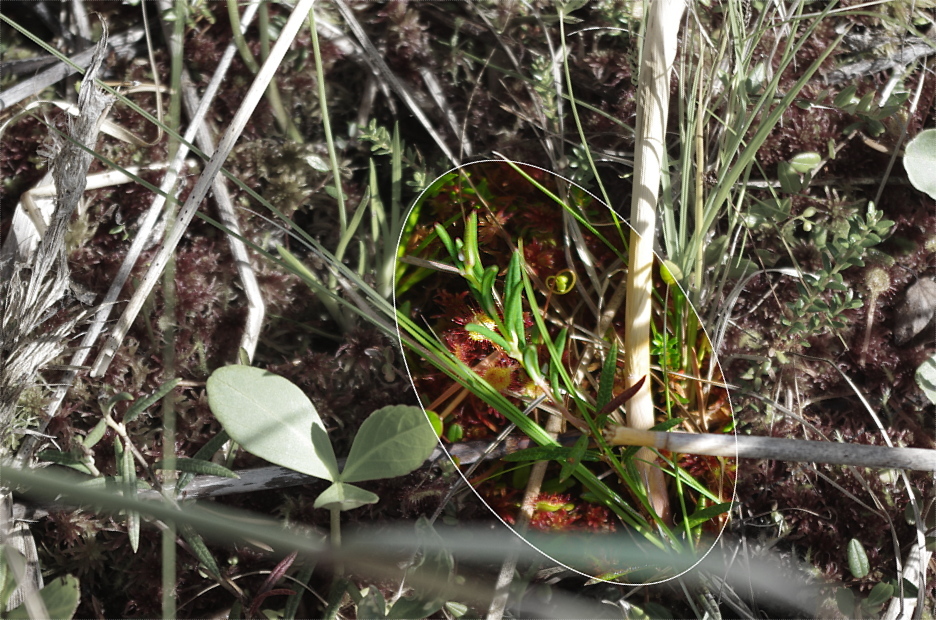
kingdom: Plantae
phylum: Tracheophyta
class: Magnoliopsida
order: Ericales
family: Ericaceae
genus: Andromeda
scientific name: Andromeda polifolia
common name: Bog-rosemary
